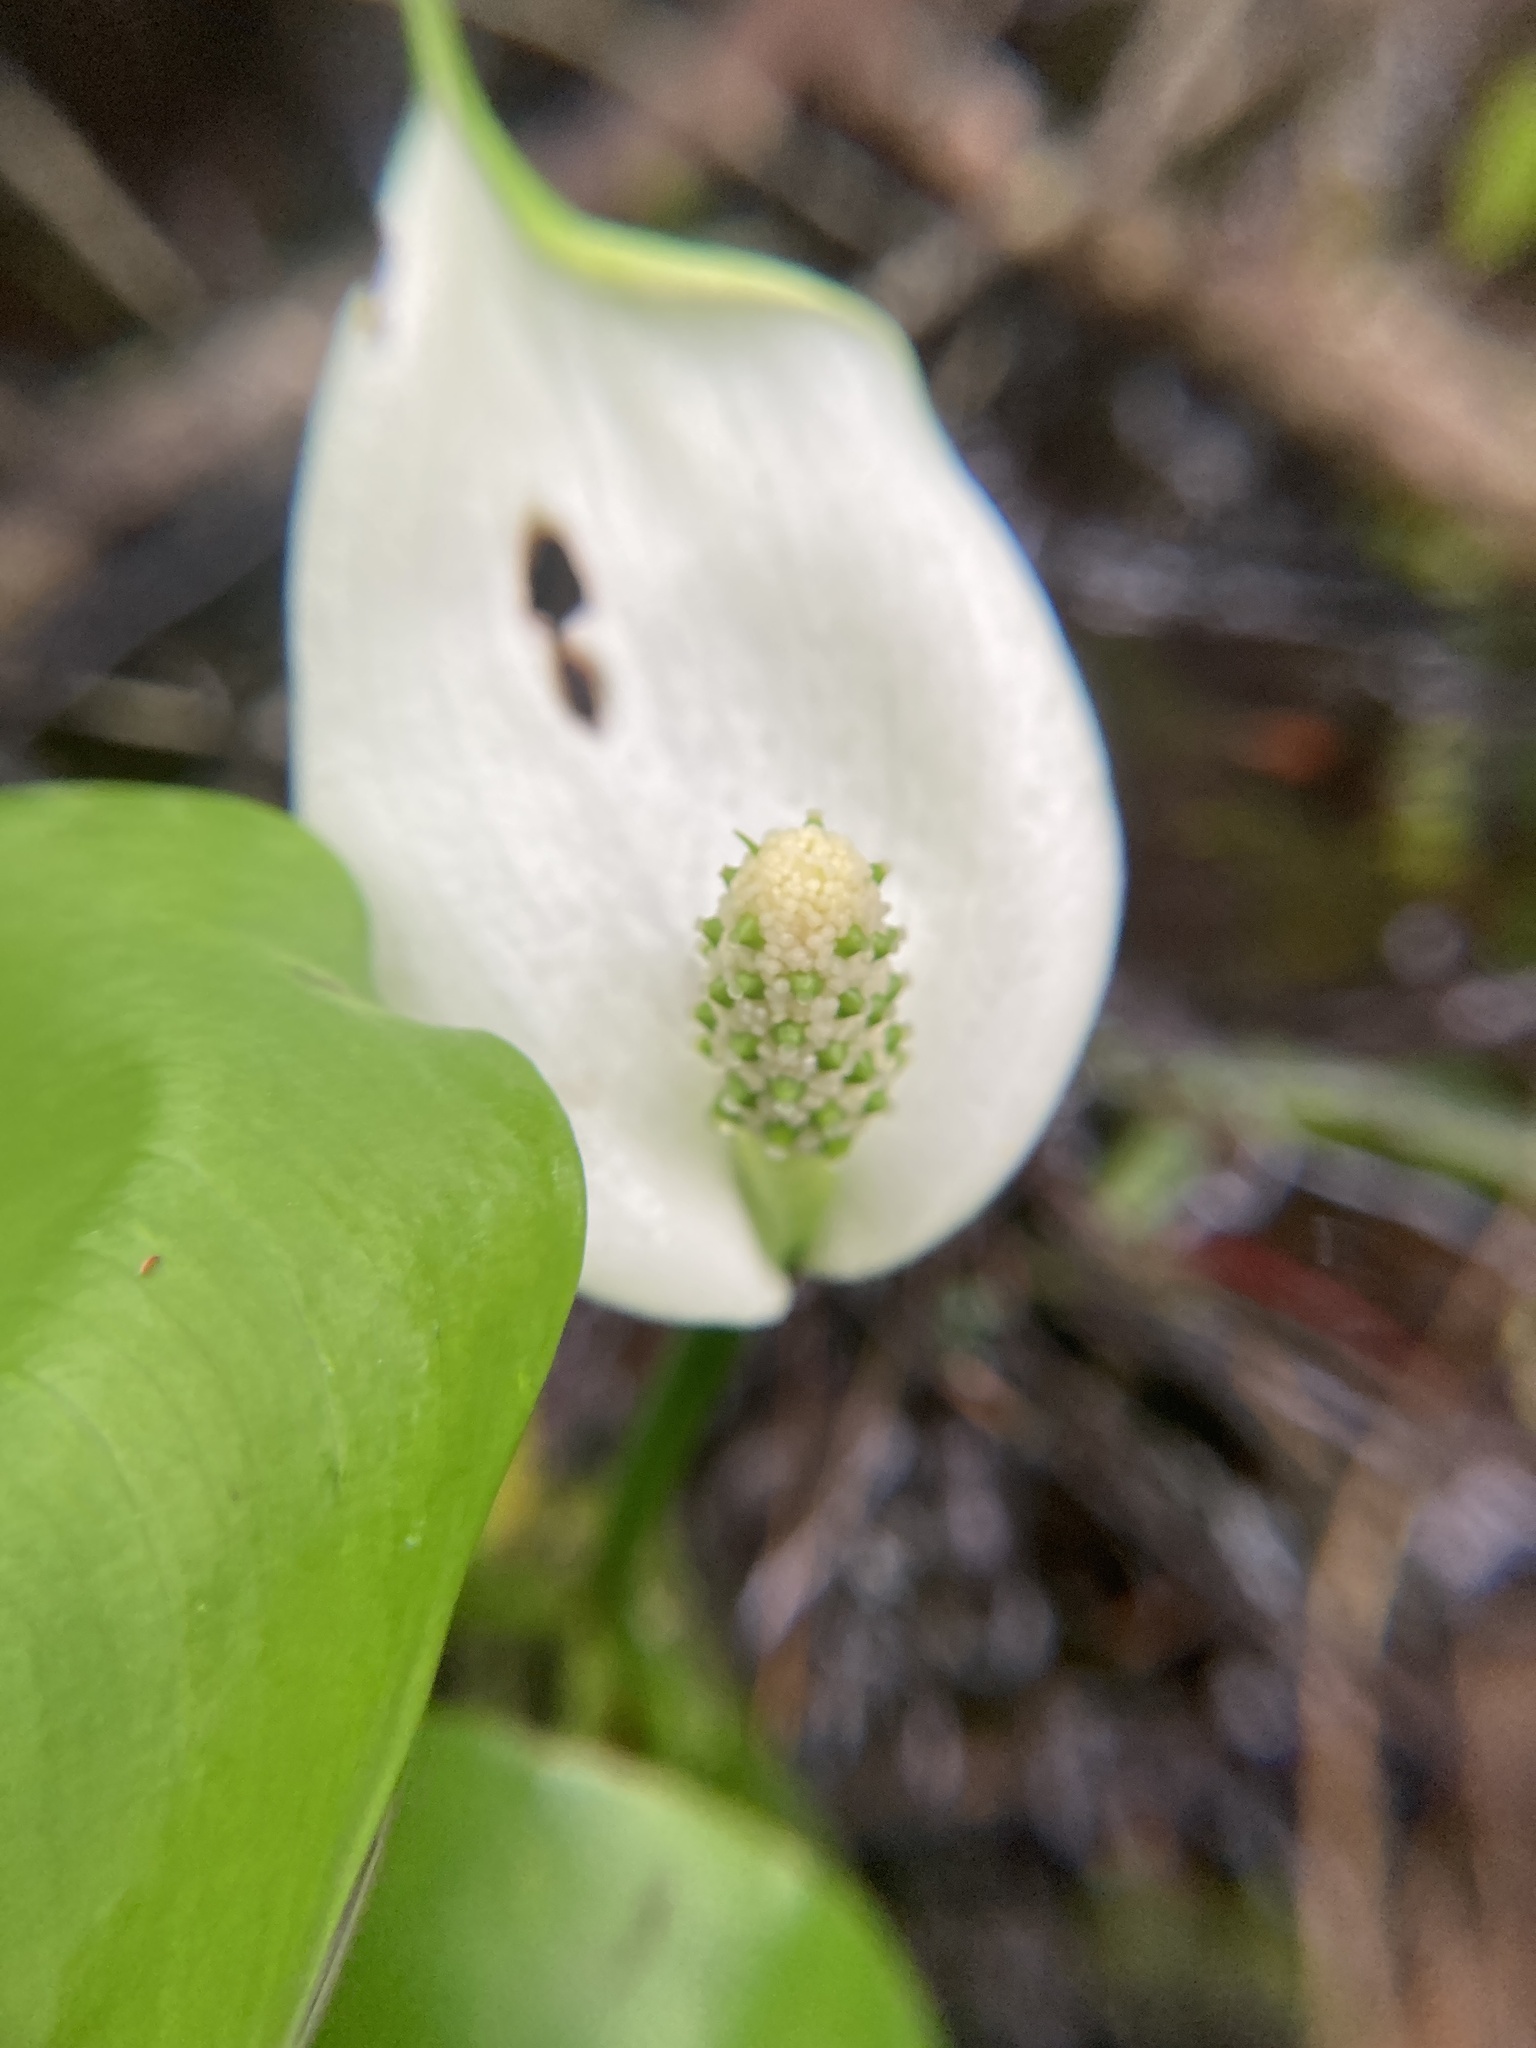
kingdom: Plantae
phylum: Tracheophyta
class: Liliopsida
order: Alismatales
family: Araceae
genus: Calla
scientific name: Calla palustris
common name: Bog arum
